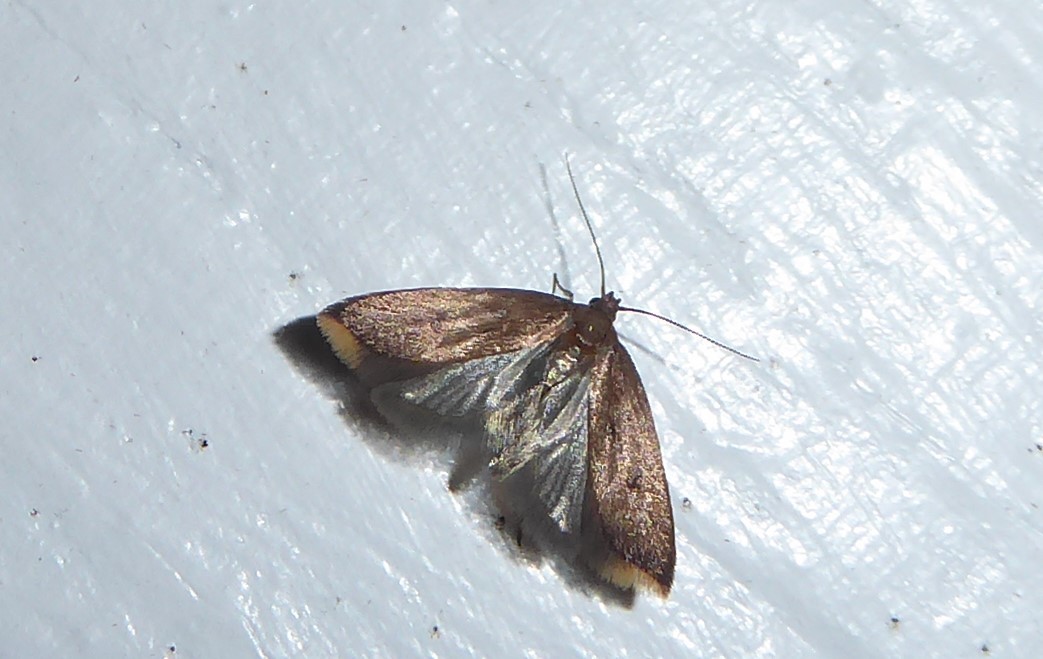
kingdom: Animalia
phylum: Arthropoda
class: Insecta
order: Lepidoptera
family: Oecophoridae
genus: Tachystola
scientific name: Tachystola acroxantha
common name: Ruddy streak
